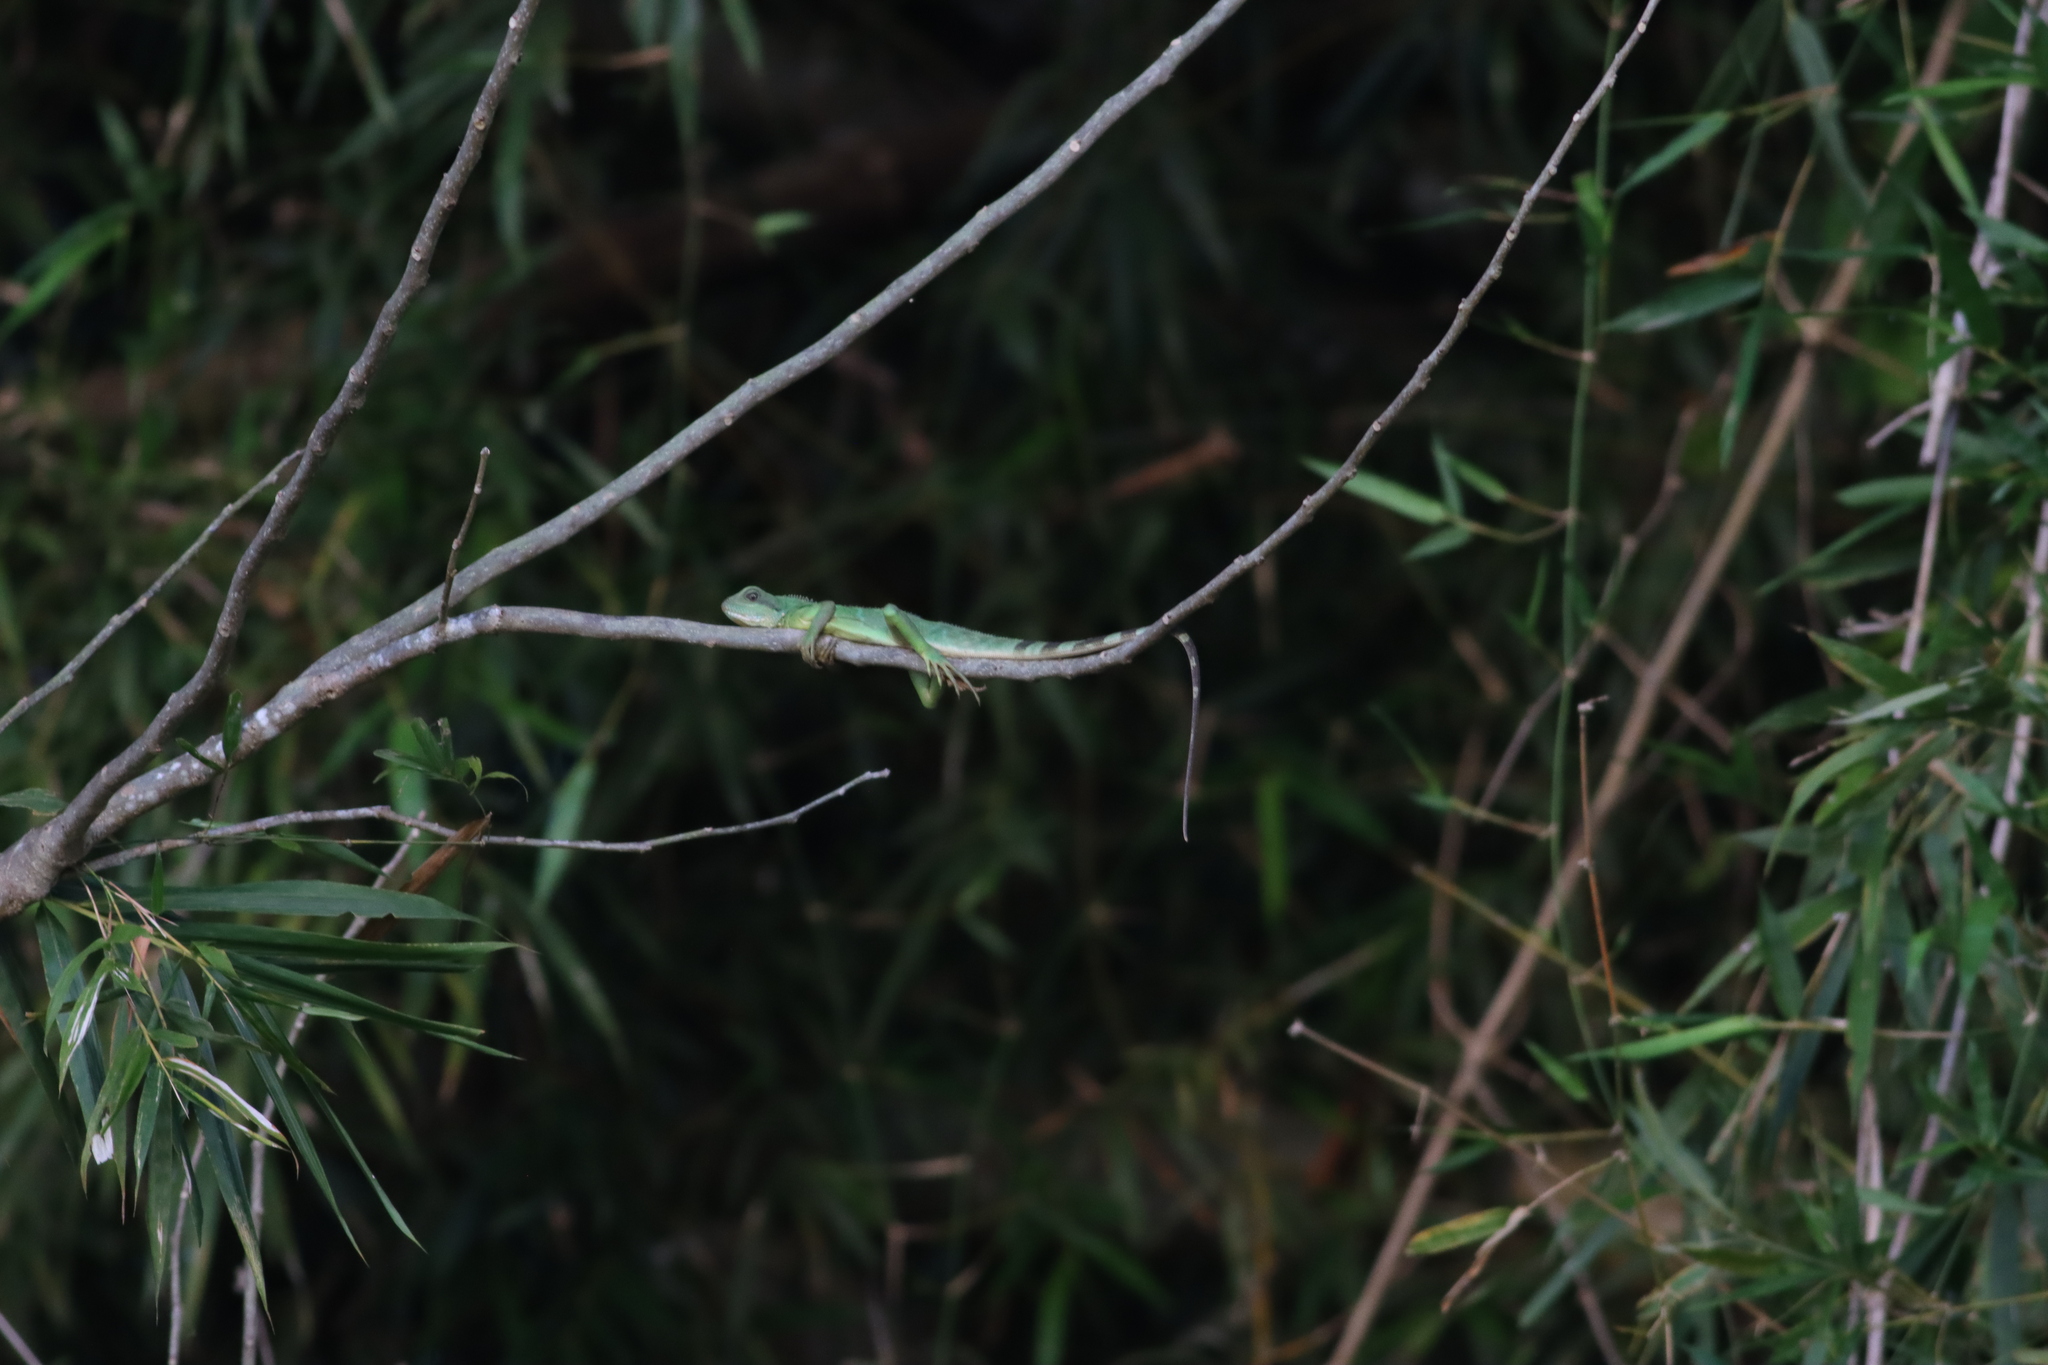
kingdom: Animalia
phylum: Chordata
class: Squamata
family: Agamidae
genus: Physignathus
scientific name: Physignathus cocincinus
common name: Asian water dragon
